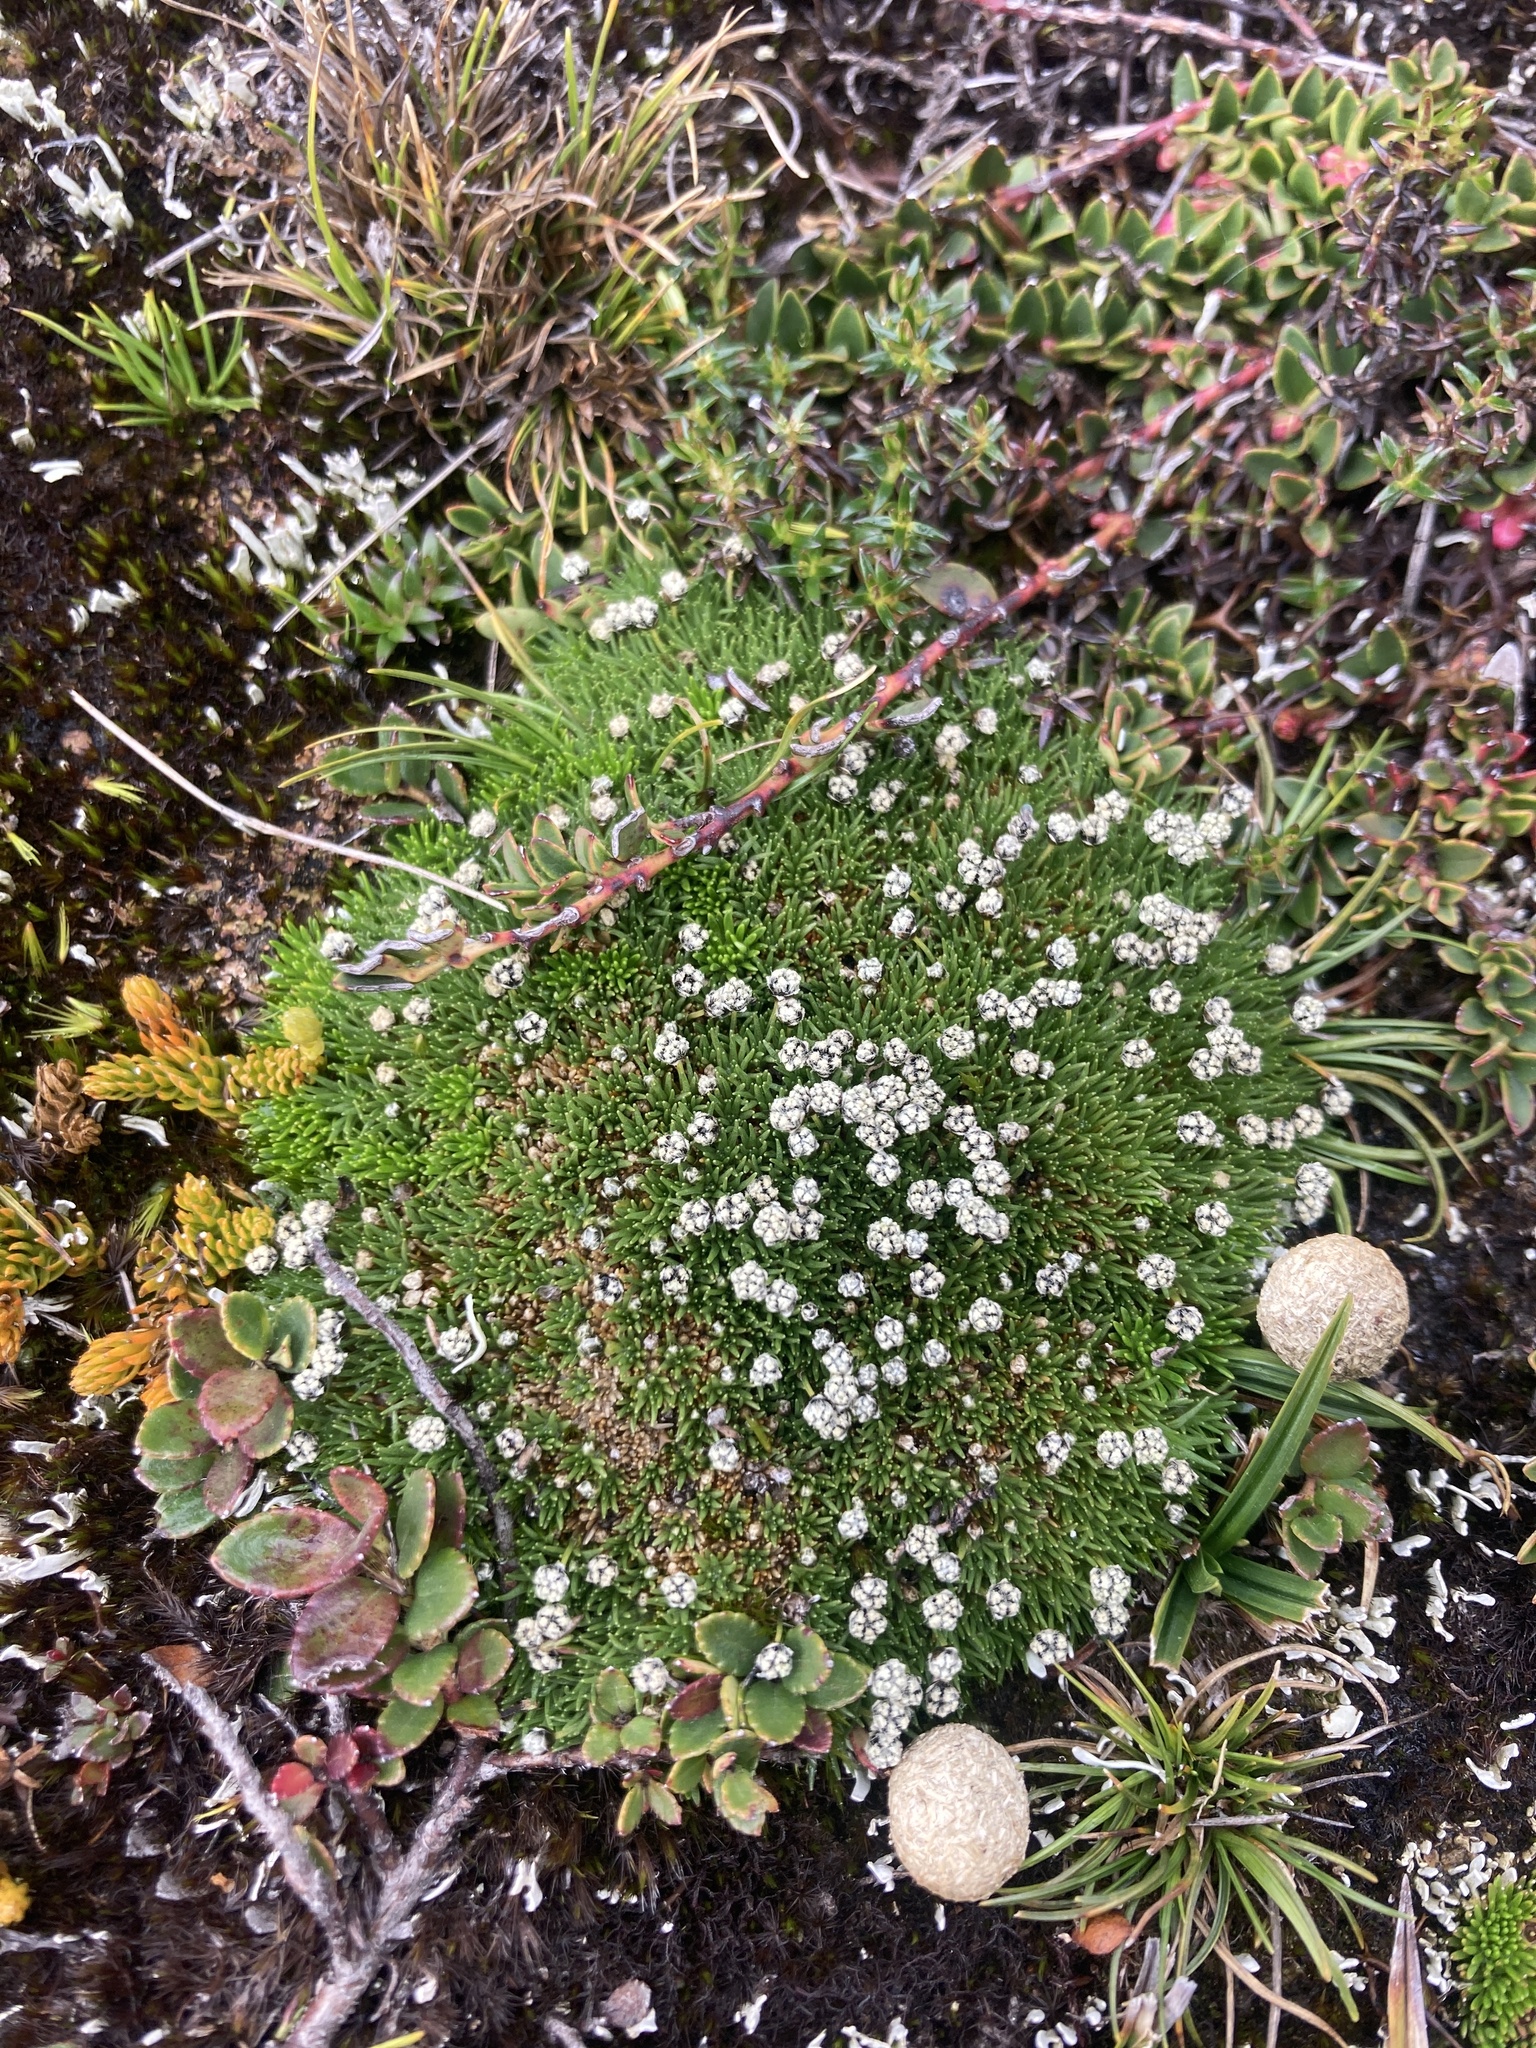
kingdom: Plantae
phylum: Tracheophyta
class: Liliopsida
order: Poales
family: Eriocaulaceae
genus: Paepalanthus
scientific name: Paepalanthus lodiculoides
